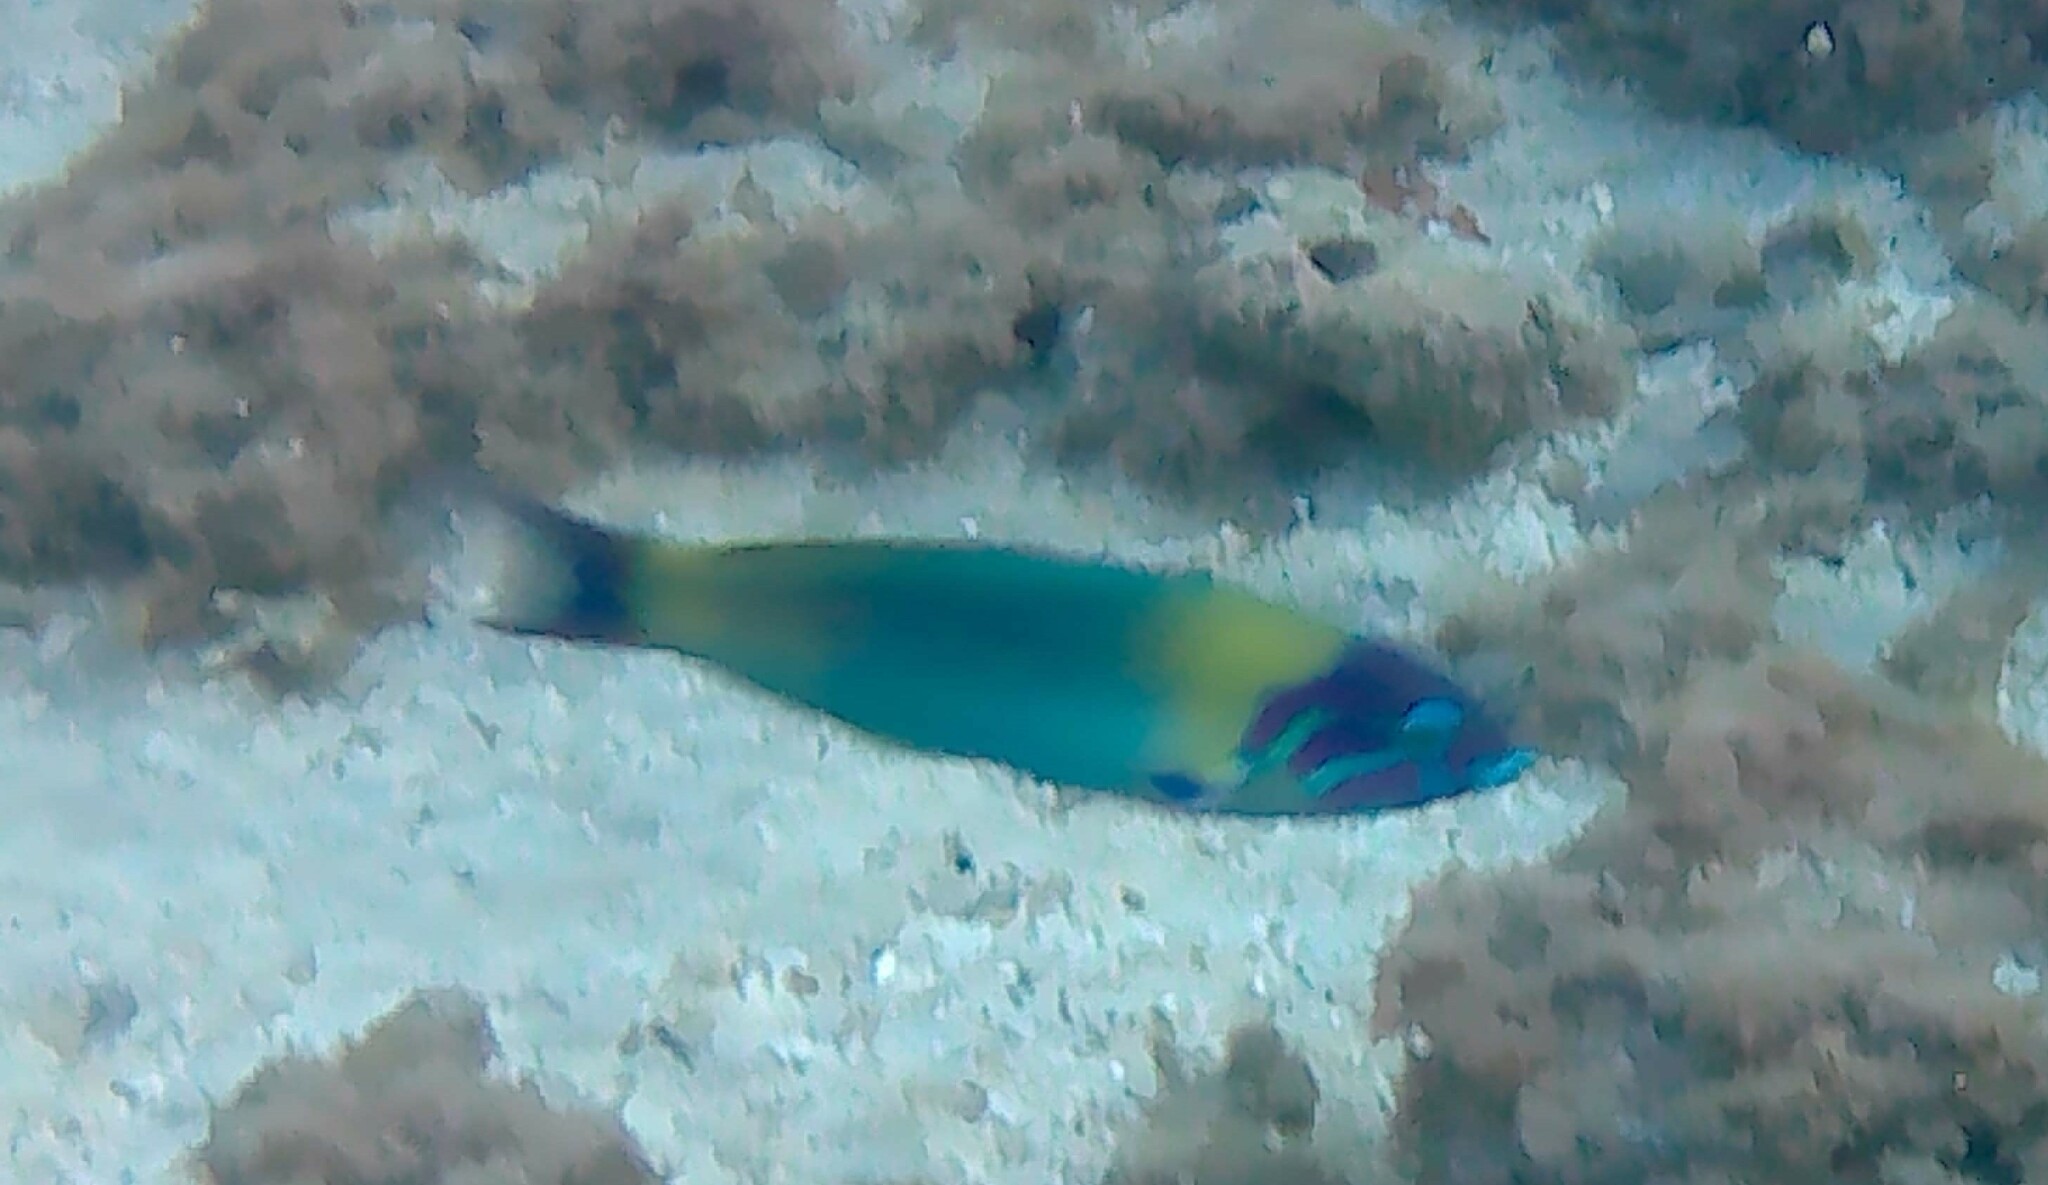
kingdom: Animalia
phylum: Chordata
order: Perciformes
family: Labridae
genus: Thalassoma
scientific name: Thalassoma genivittatum
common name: Red-cheek wrasse
